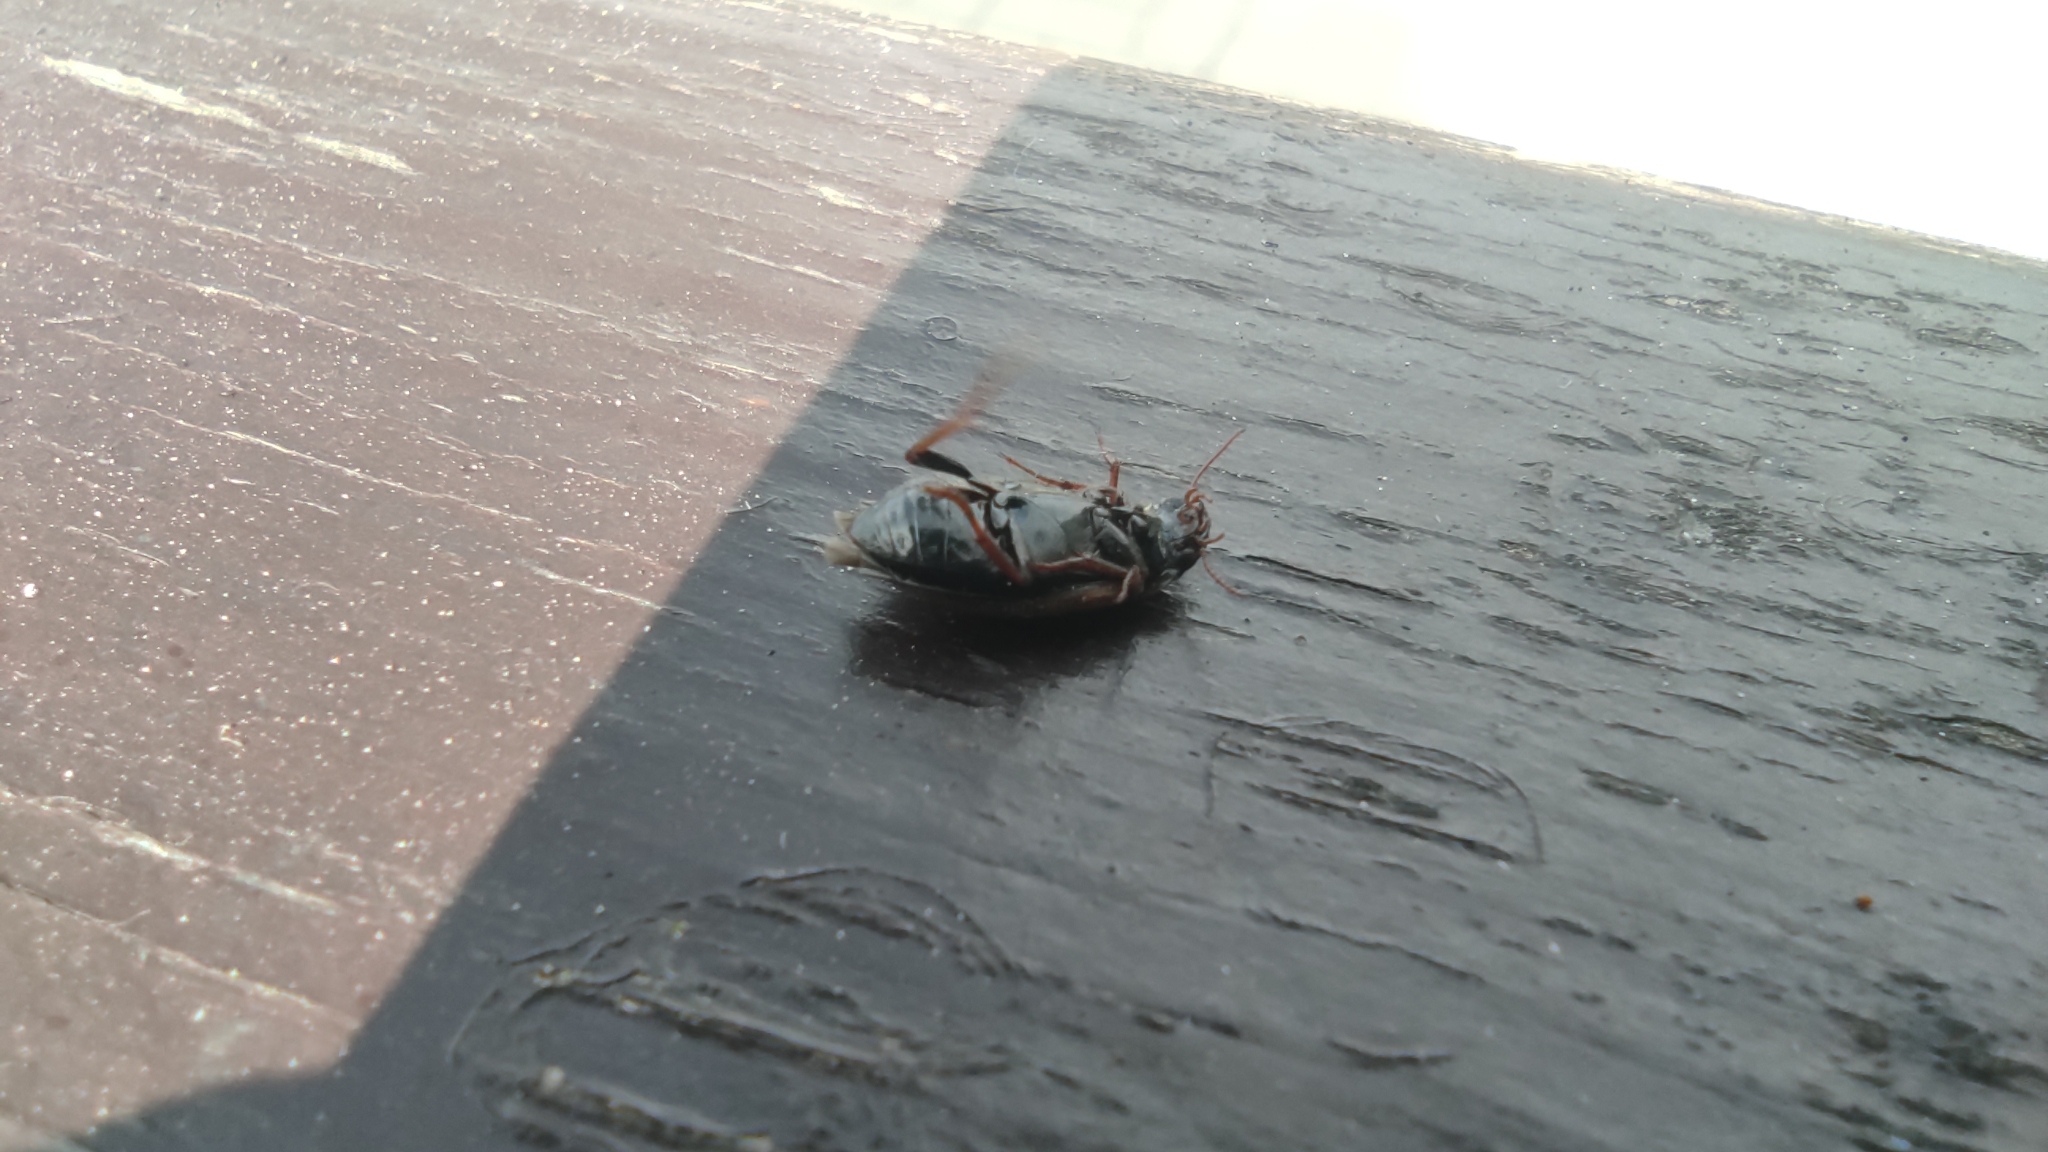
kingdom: Animalia
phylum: Arthropoda
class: Insecta
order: Coleoptera
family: Dytiscidae
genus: Agabus
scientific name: Agabus basalis
